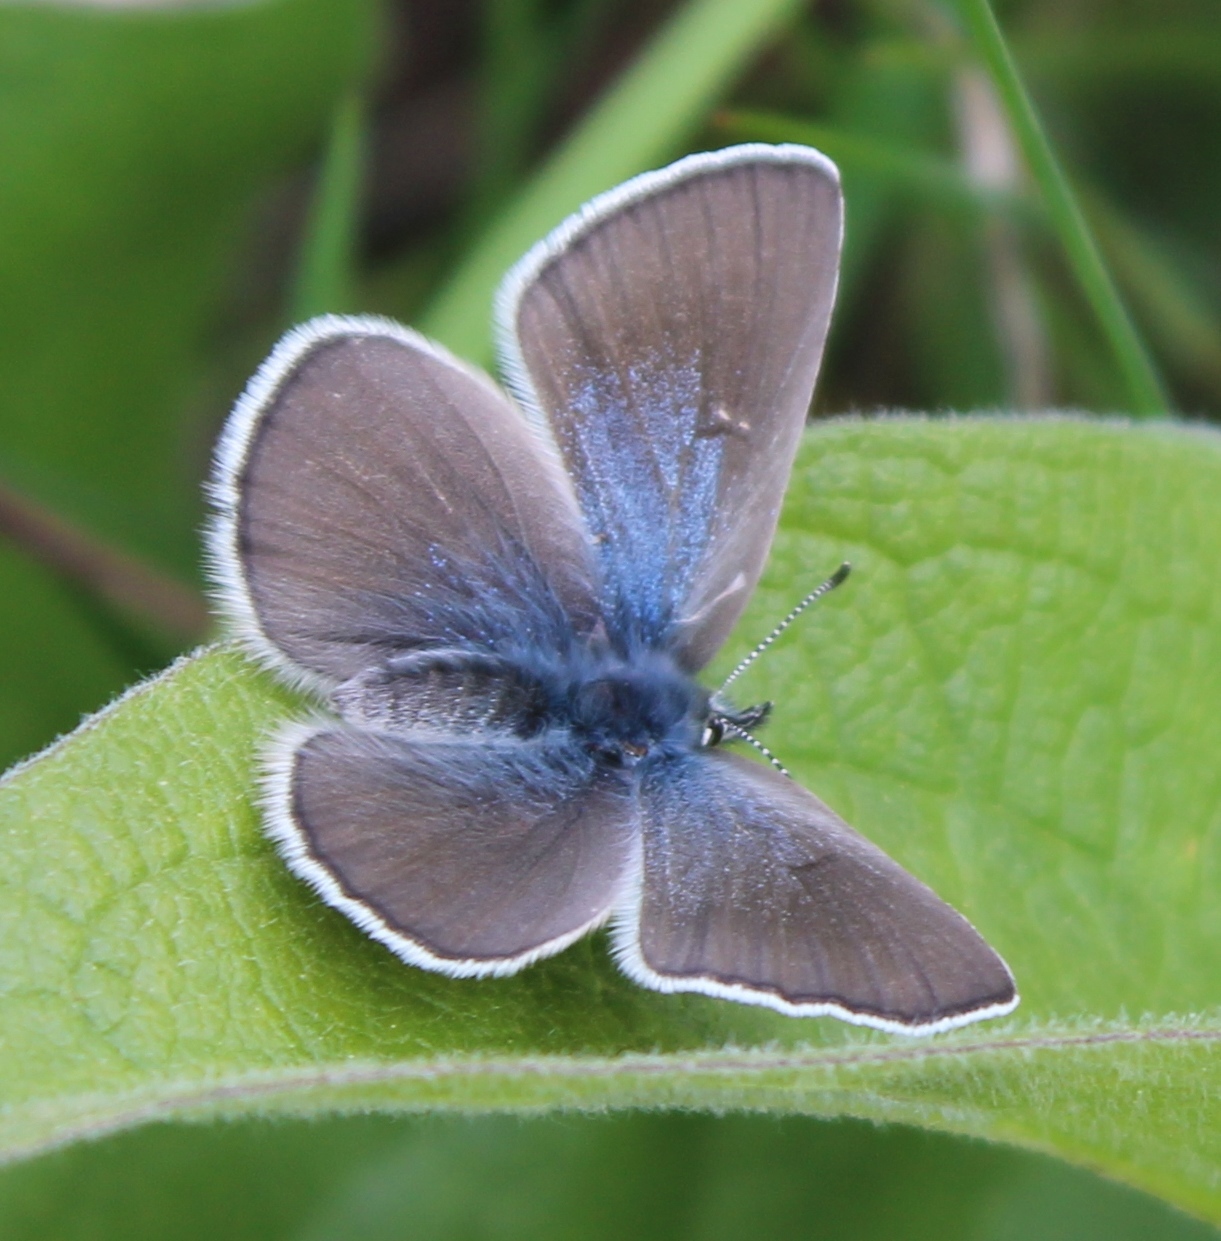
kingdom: Animalia
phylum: Arthropoda
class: Insecta
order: Lepidoptera
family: Lycaenidae
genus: Glaucopsyche
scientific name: Glaucopsyche lygdamus
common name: Silvery blue
